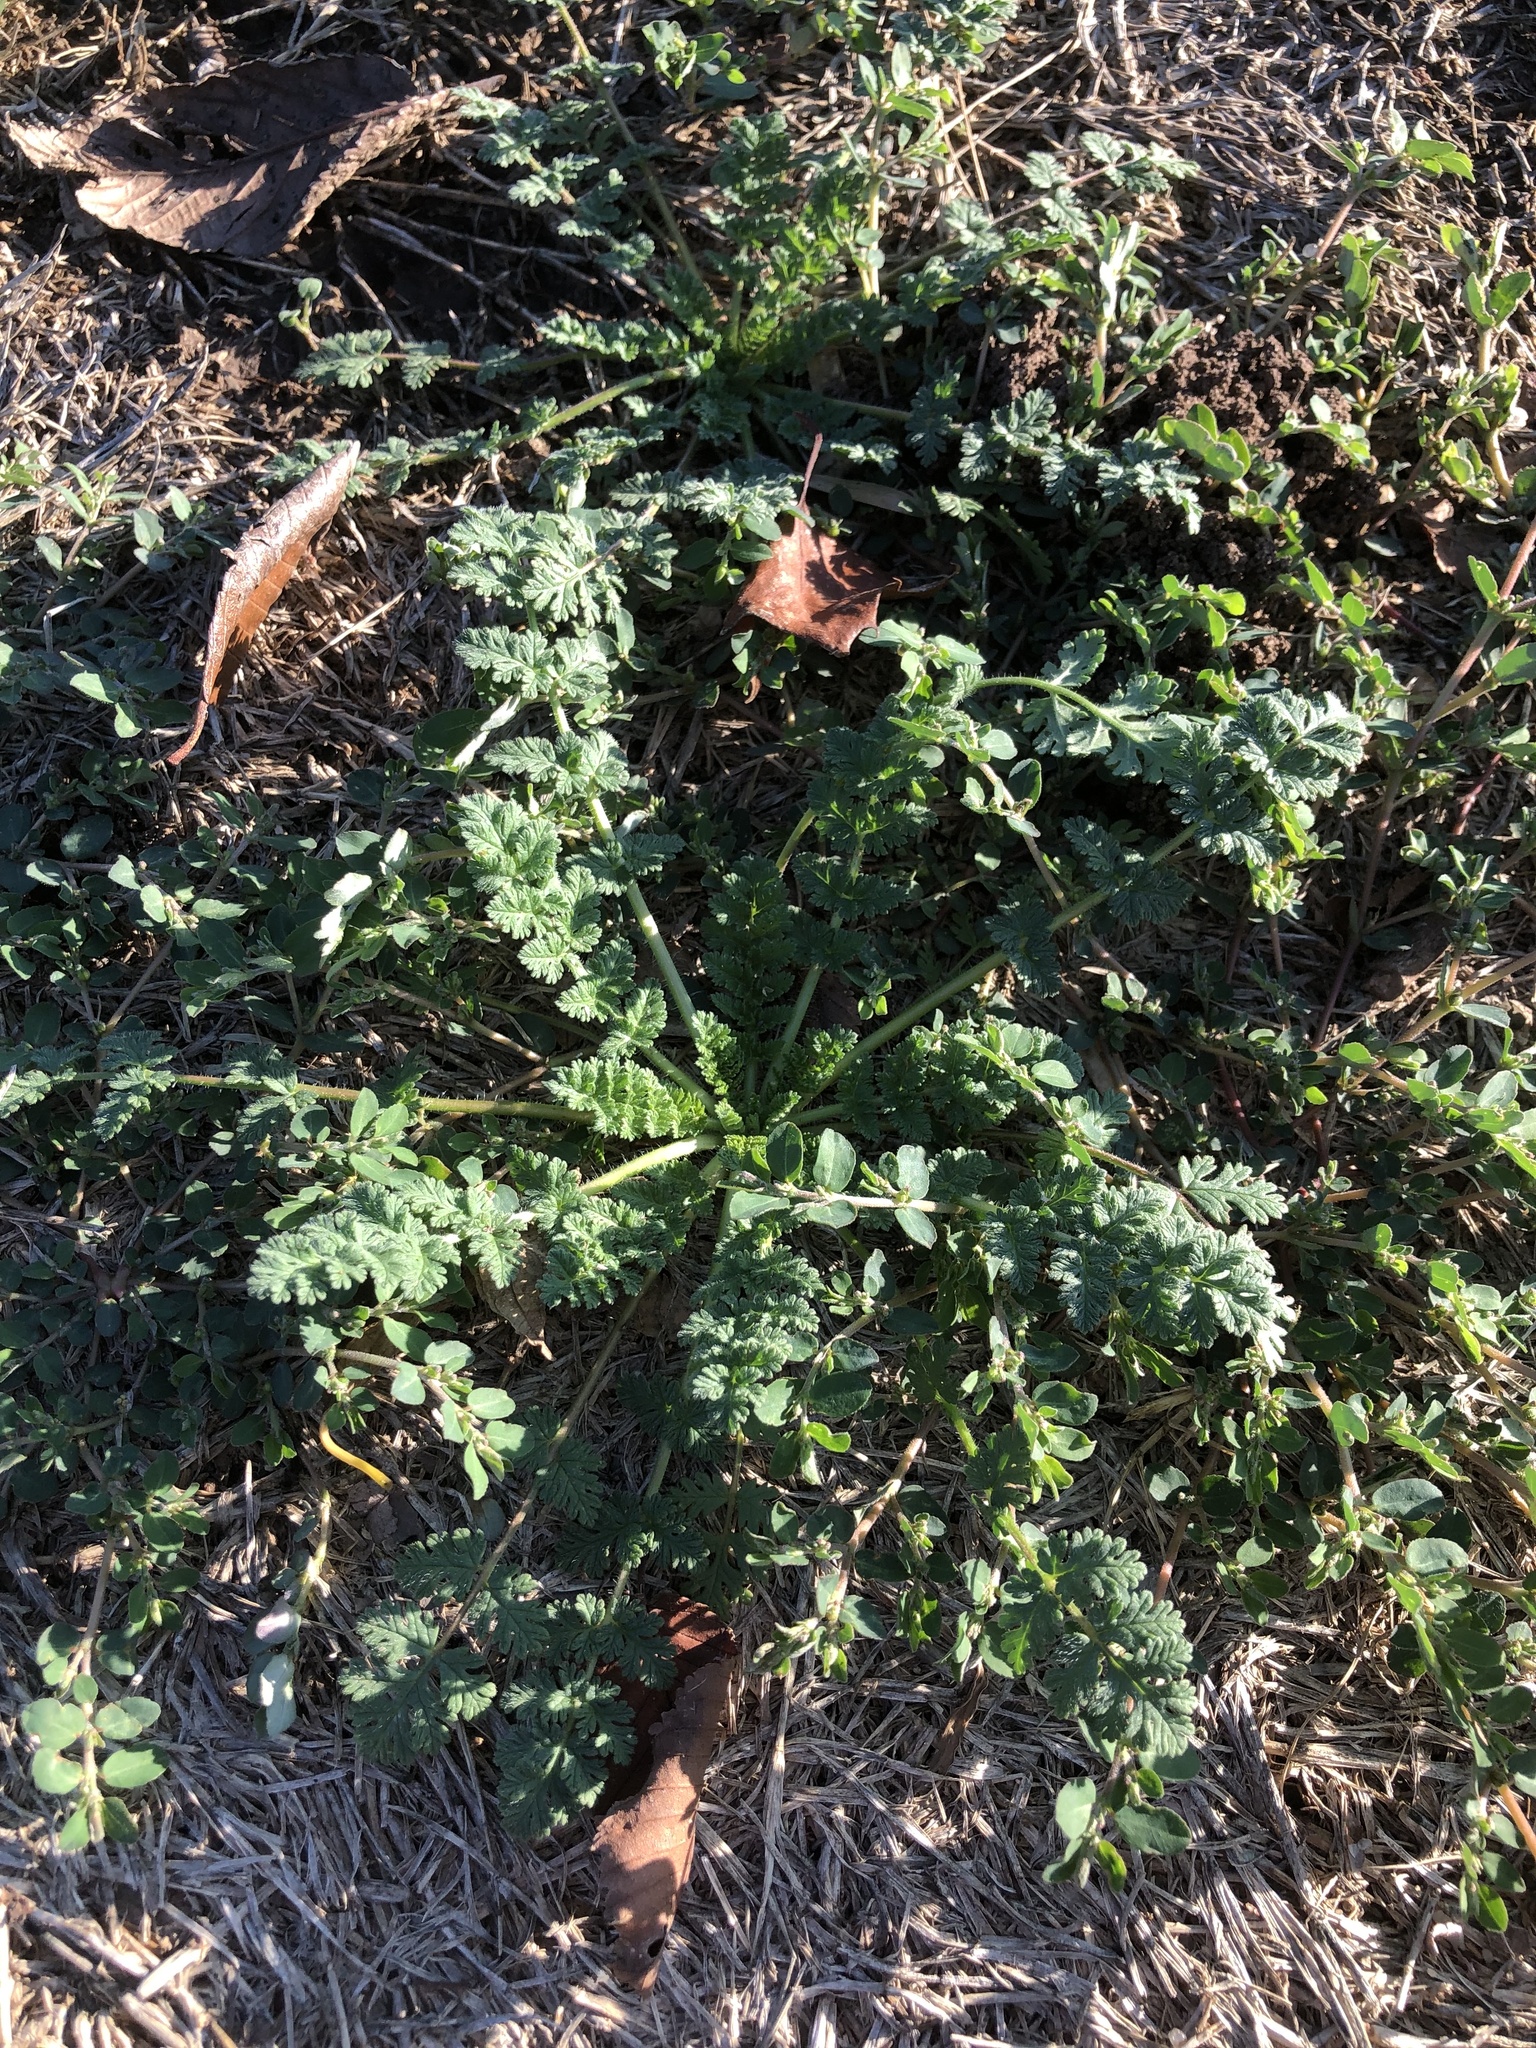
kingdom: Plantae
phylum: Tracheophyta
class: Magnoliopsida
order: Geraniales
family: Geraniaceae
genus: Erodium
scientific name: Erodium cicutarium
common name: Common stork's-bill
